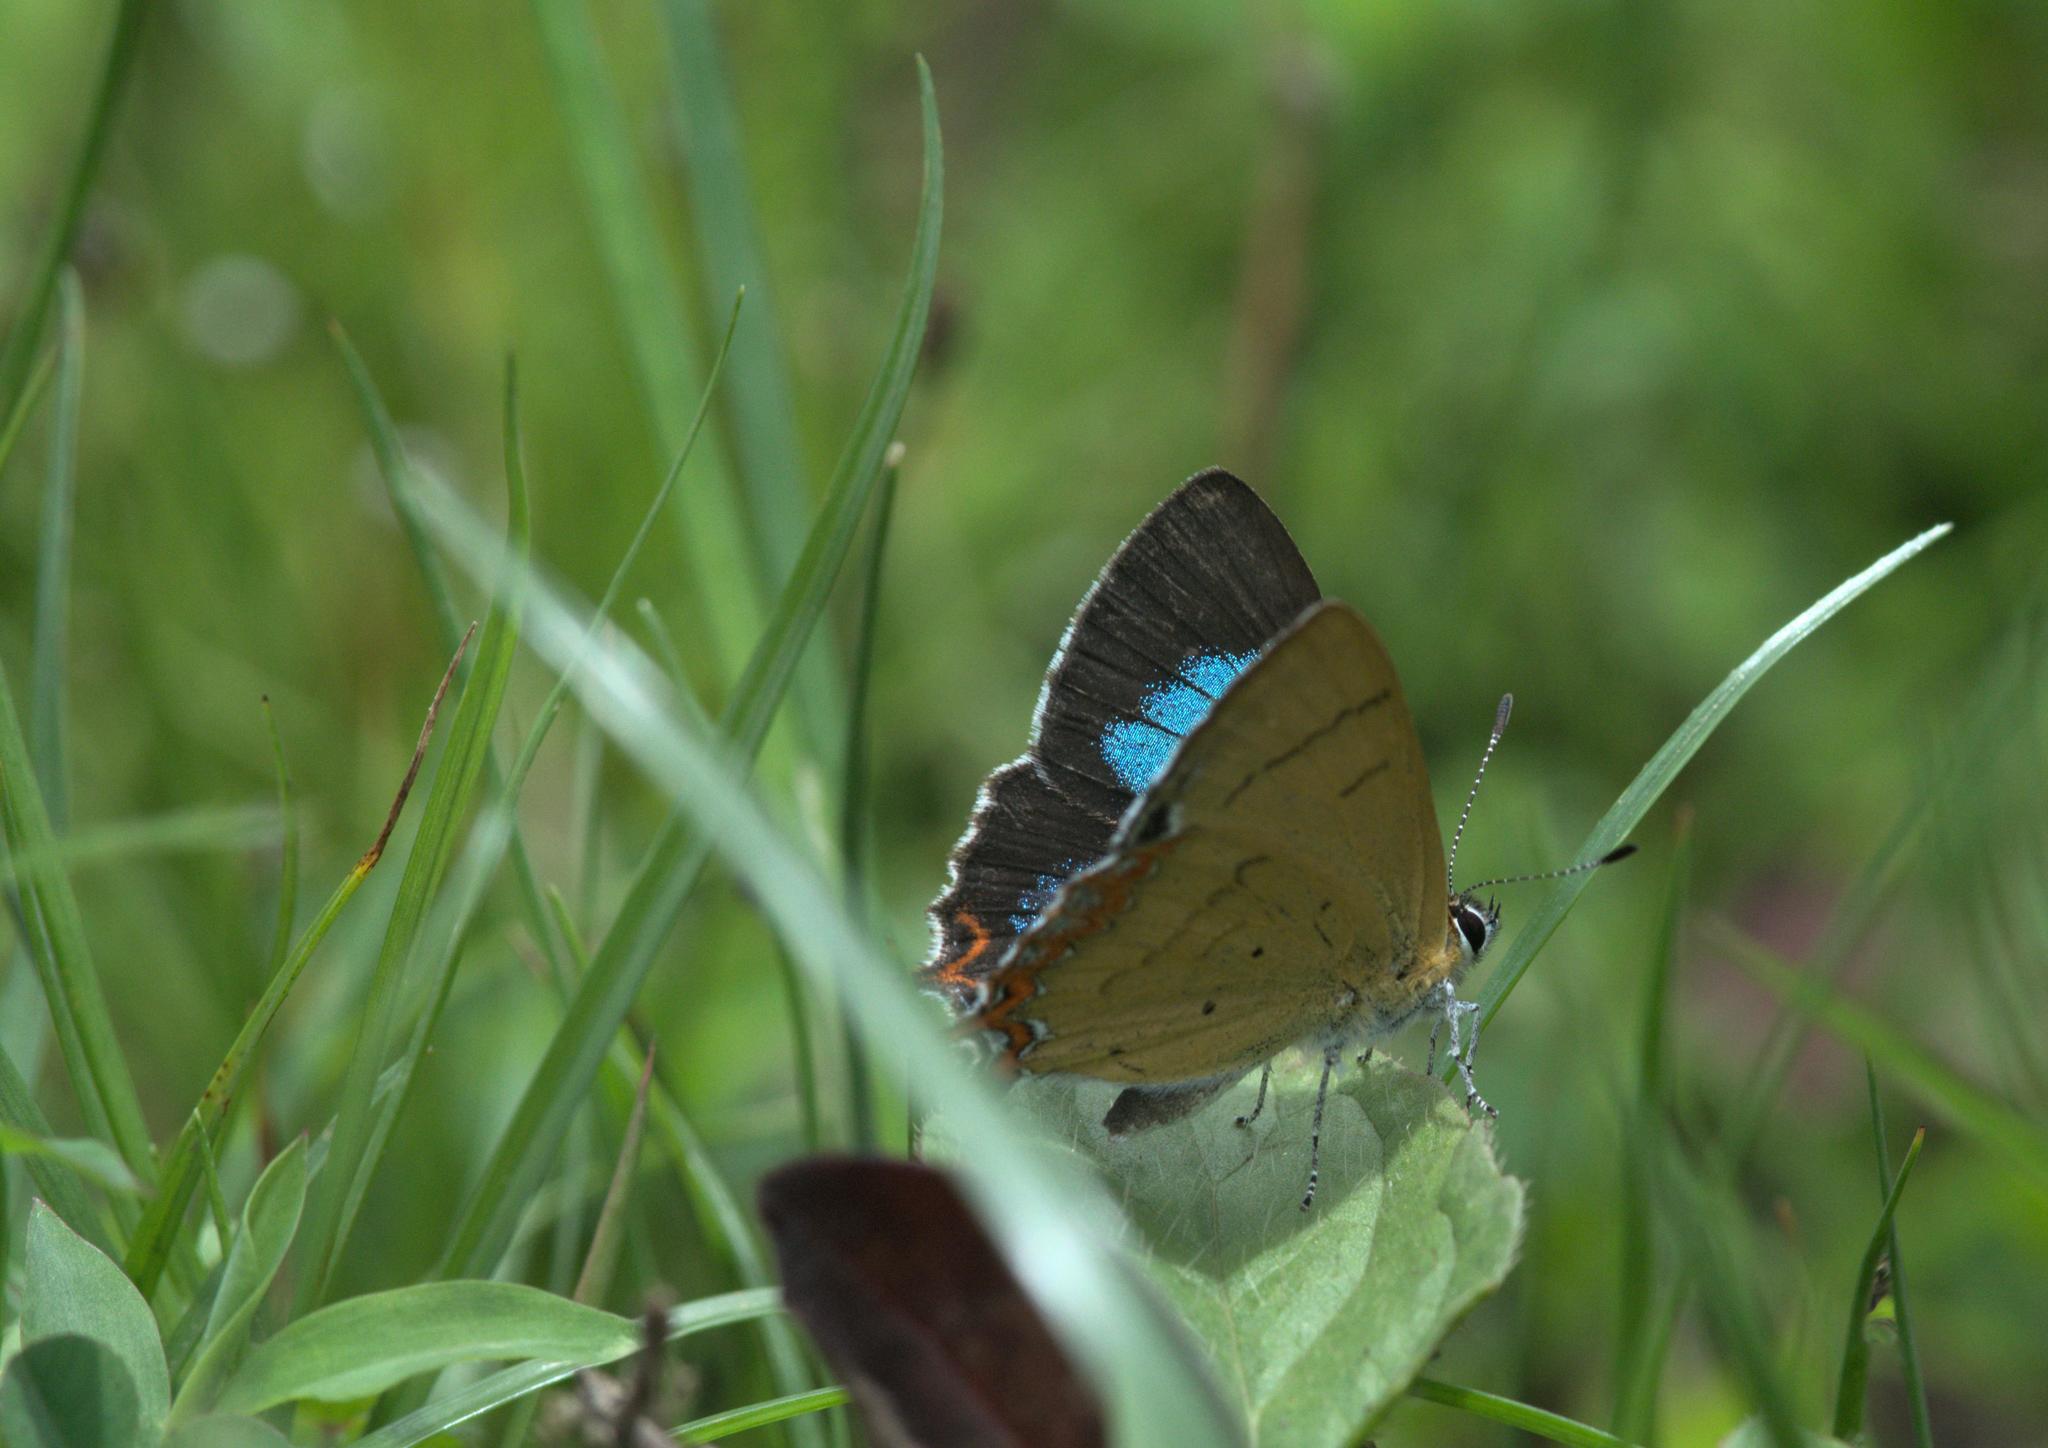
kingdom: Animalia
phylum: Arthropoda
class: Insecta
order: Lepidoptera
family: Lycaenidae
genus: Heliophorus
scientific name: Heliophorus
